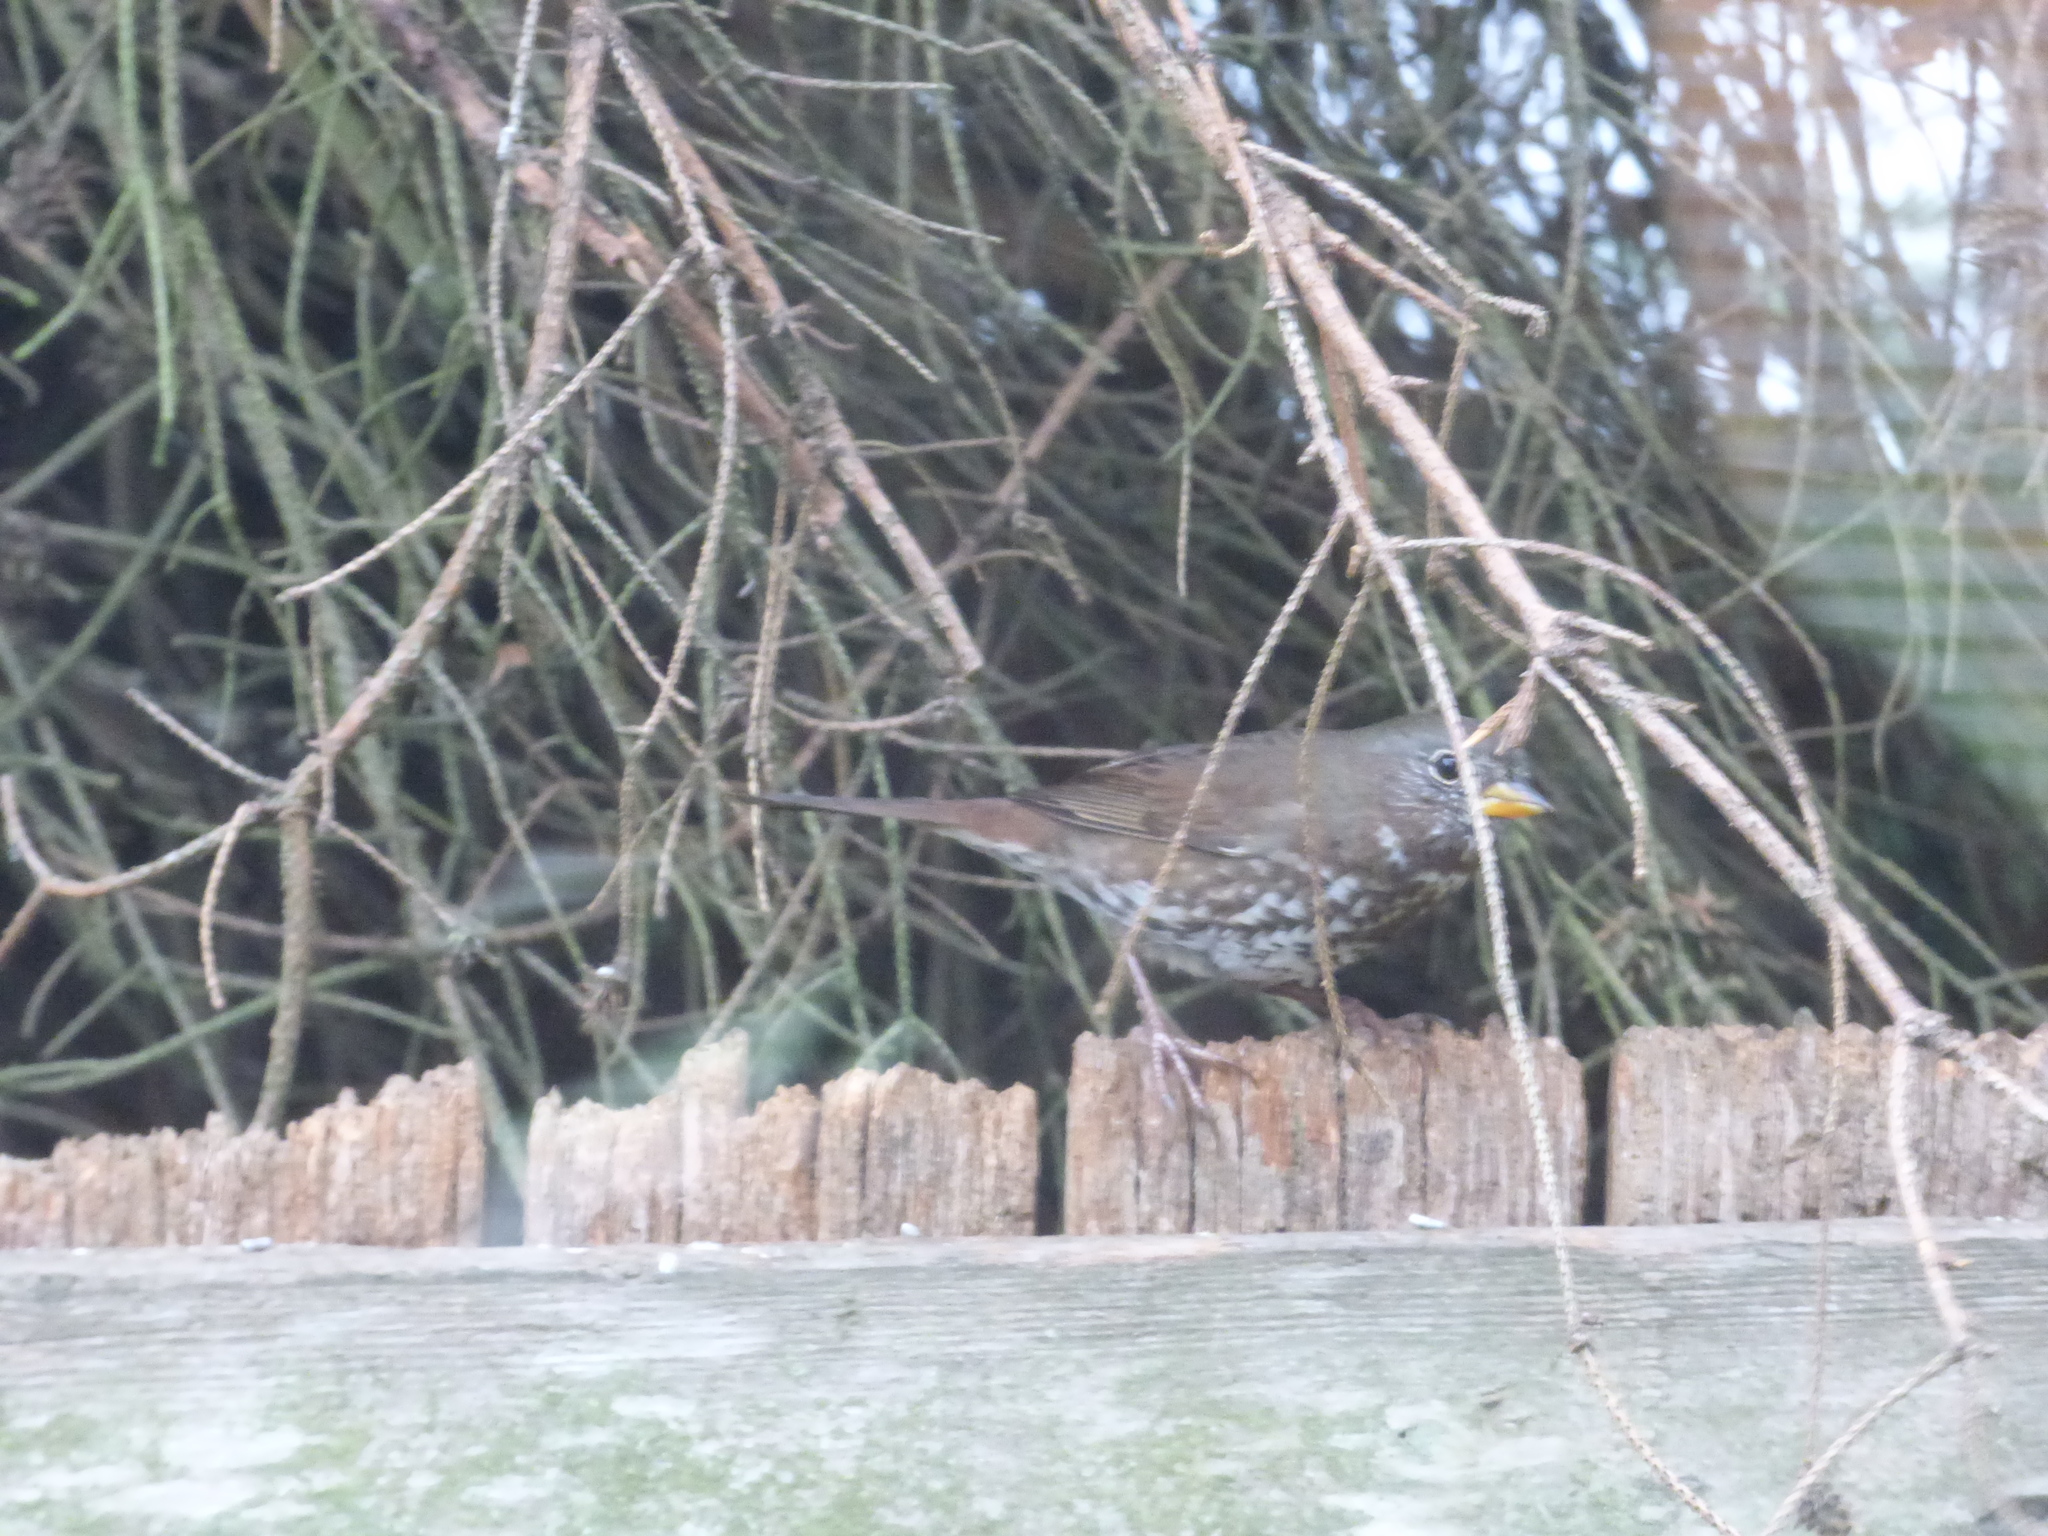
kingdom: Animalia
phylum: Chordata
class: Aves
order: Passeriformes
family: Passerellidae
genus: Passerella
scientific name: Passerella iliaca
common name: Fox sparrow
